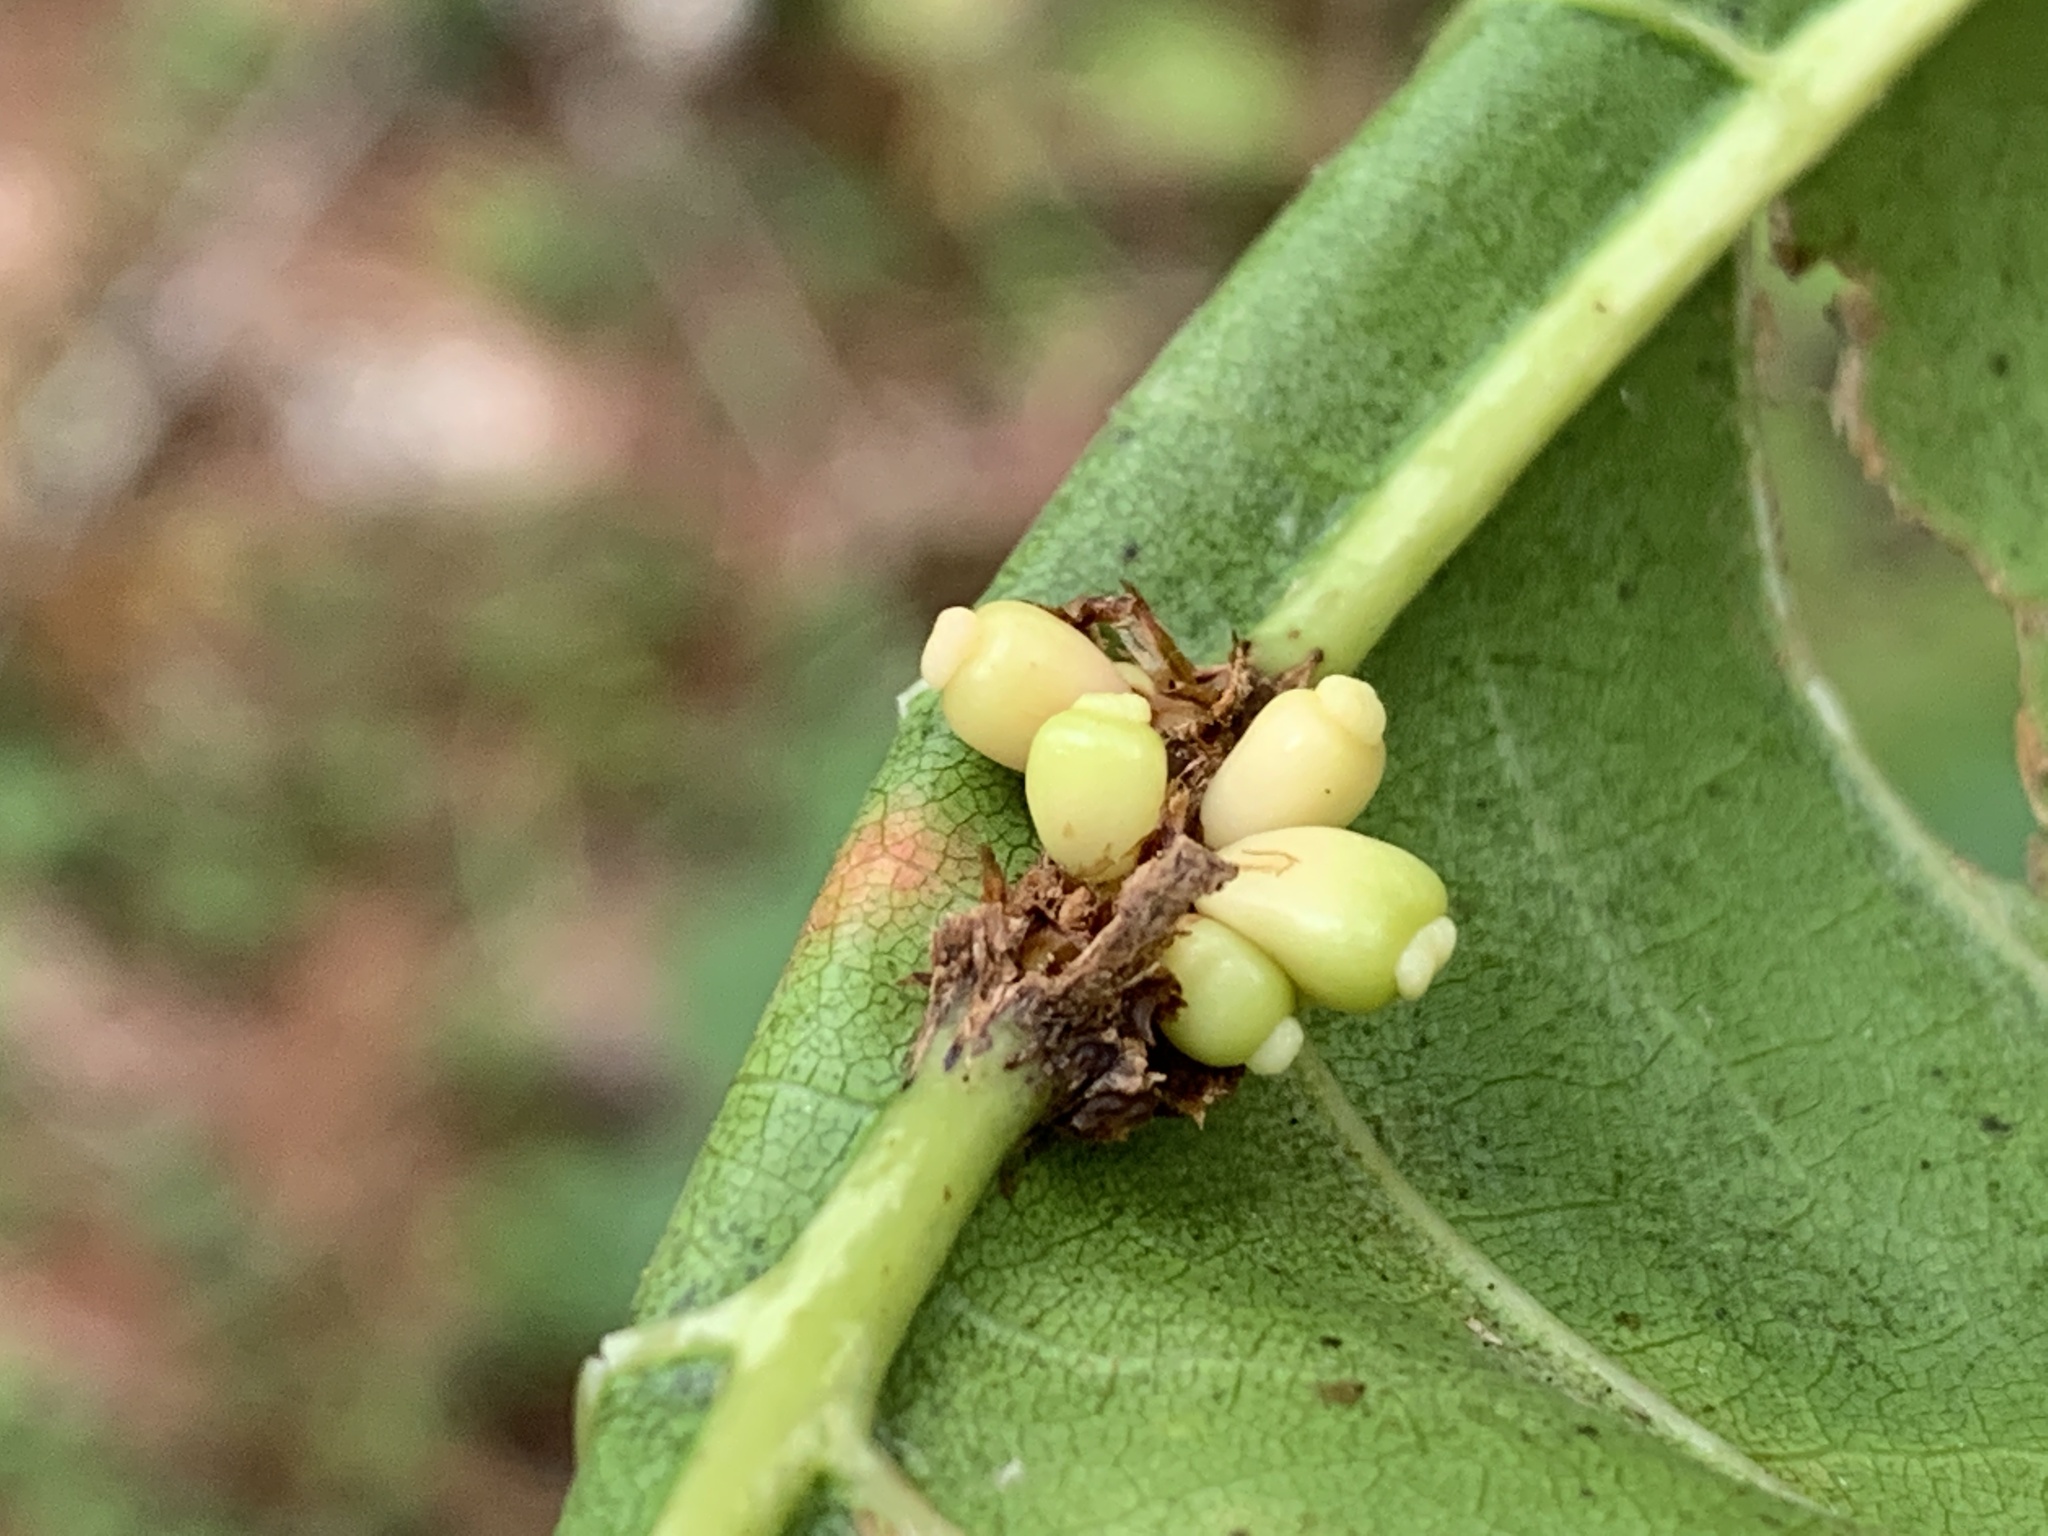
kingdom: Animalia
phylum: Arthropoda
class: Insecta
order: Hymenoptera
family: Cynipidae
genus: Kokkocynips
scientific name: Kokkocynips decidua
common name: Oak wheat gall
